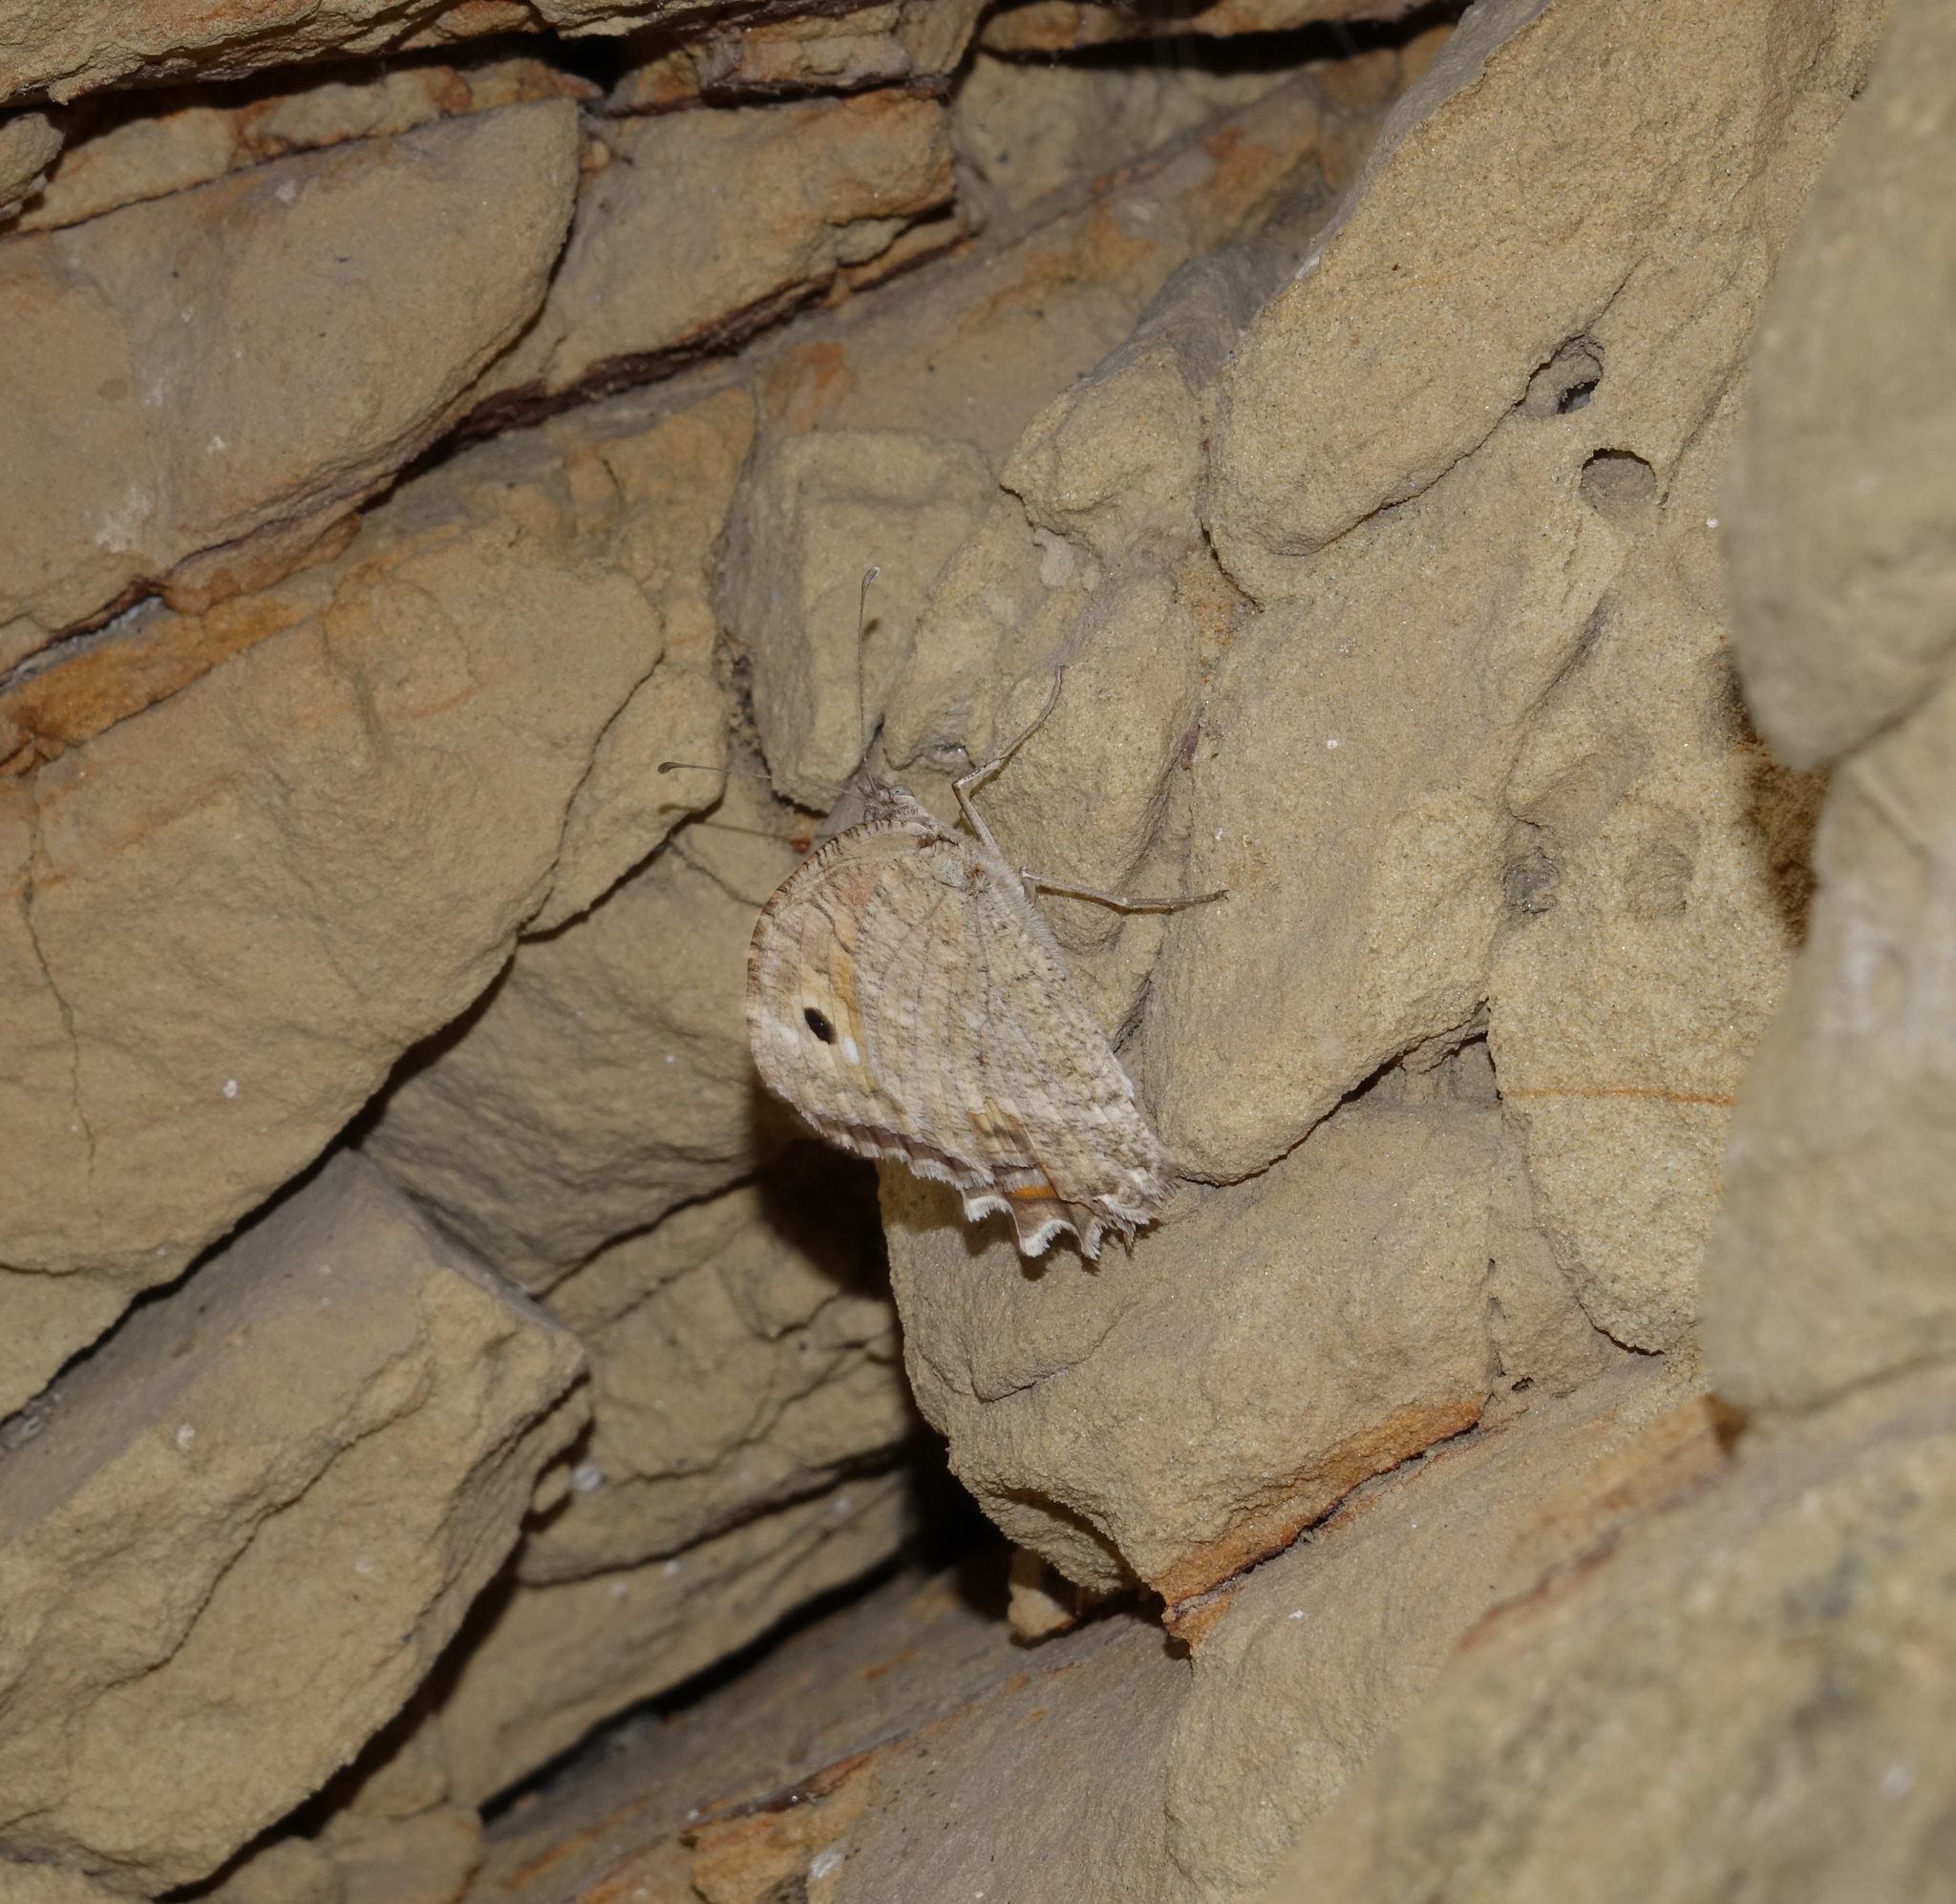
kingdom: Animalia
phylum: Arthropoda
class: Insecta
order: Lepidoptera
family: Nymphalidae
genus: Pseudochazara
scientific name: Pseudochazara pelopea
